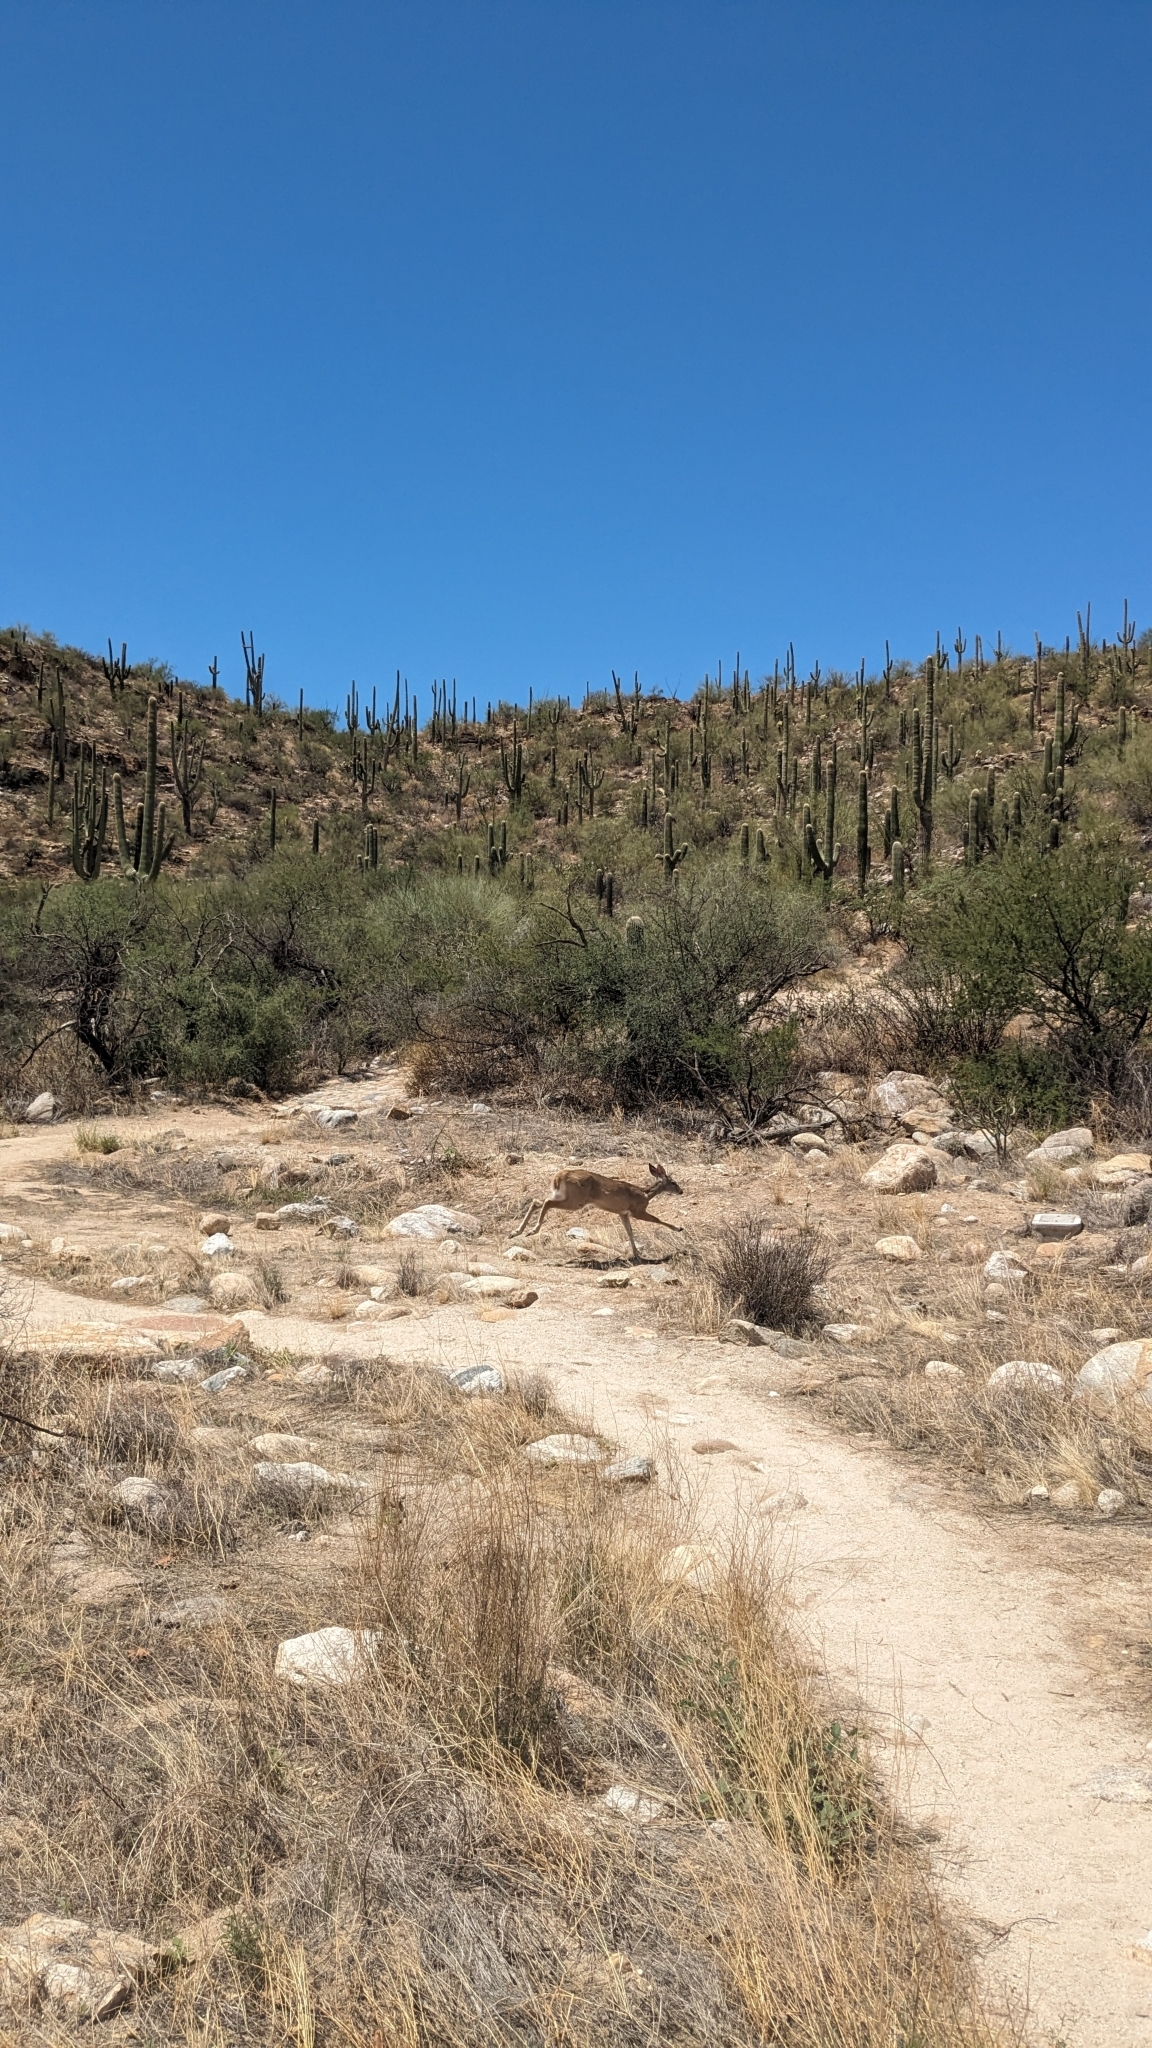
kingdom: Animalia
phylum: Chordata
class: Mammalia
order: Artiodactyla
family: Cervidae
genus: Odocoileus
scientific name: Odocoileus virginianus
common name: White-tailed deer
